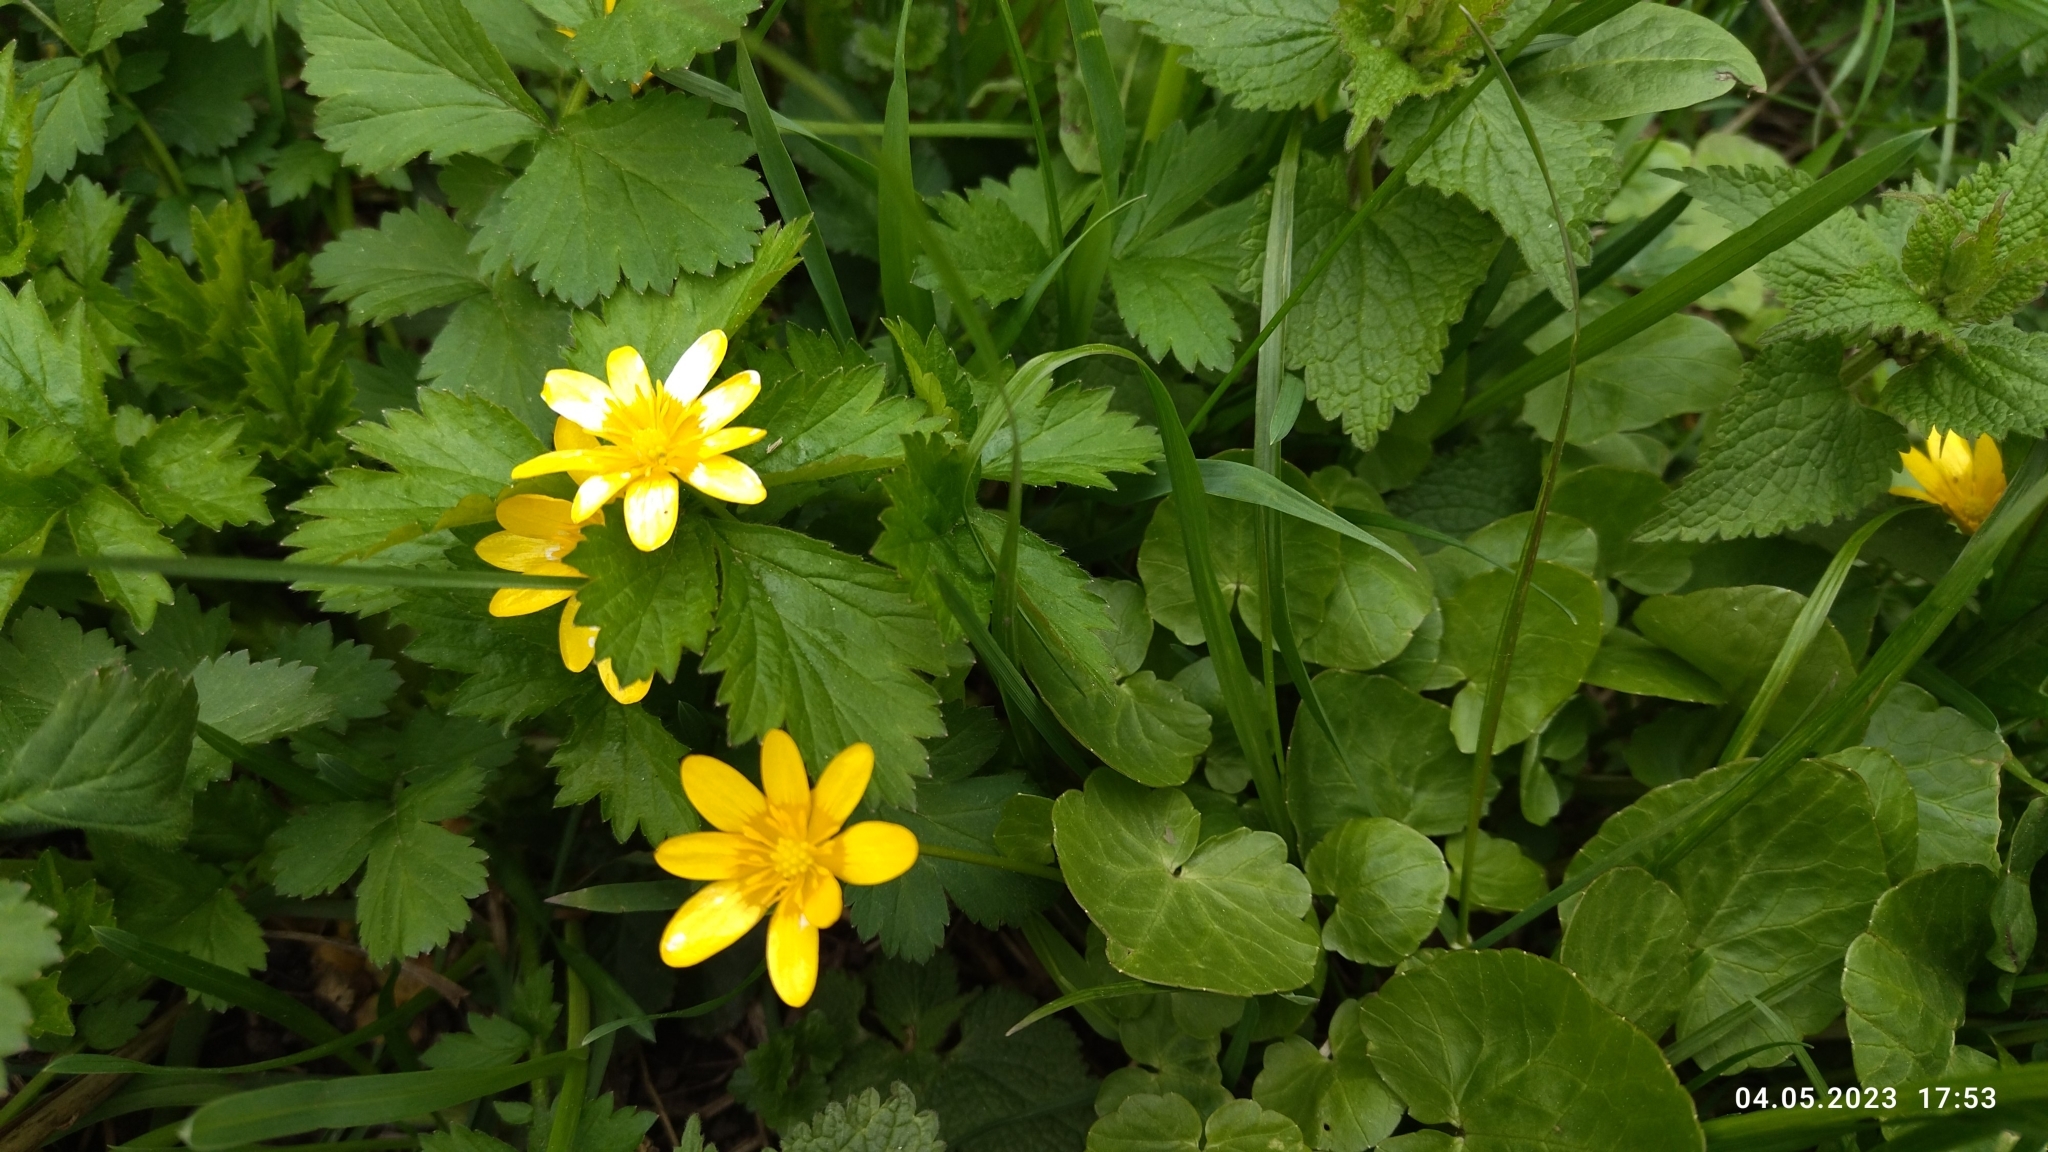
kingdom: Plantae
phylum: Tracheophyta
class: Magnoliopsida
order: Ranunculales
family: Ranunculaceae
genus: Ficaria
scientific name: Ficaria verna
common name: Lesser celandine
